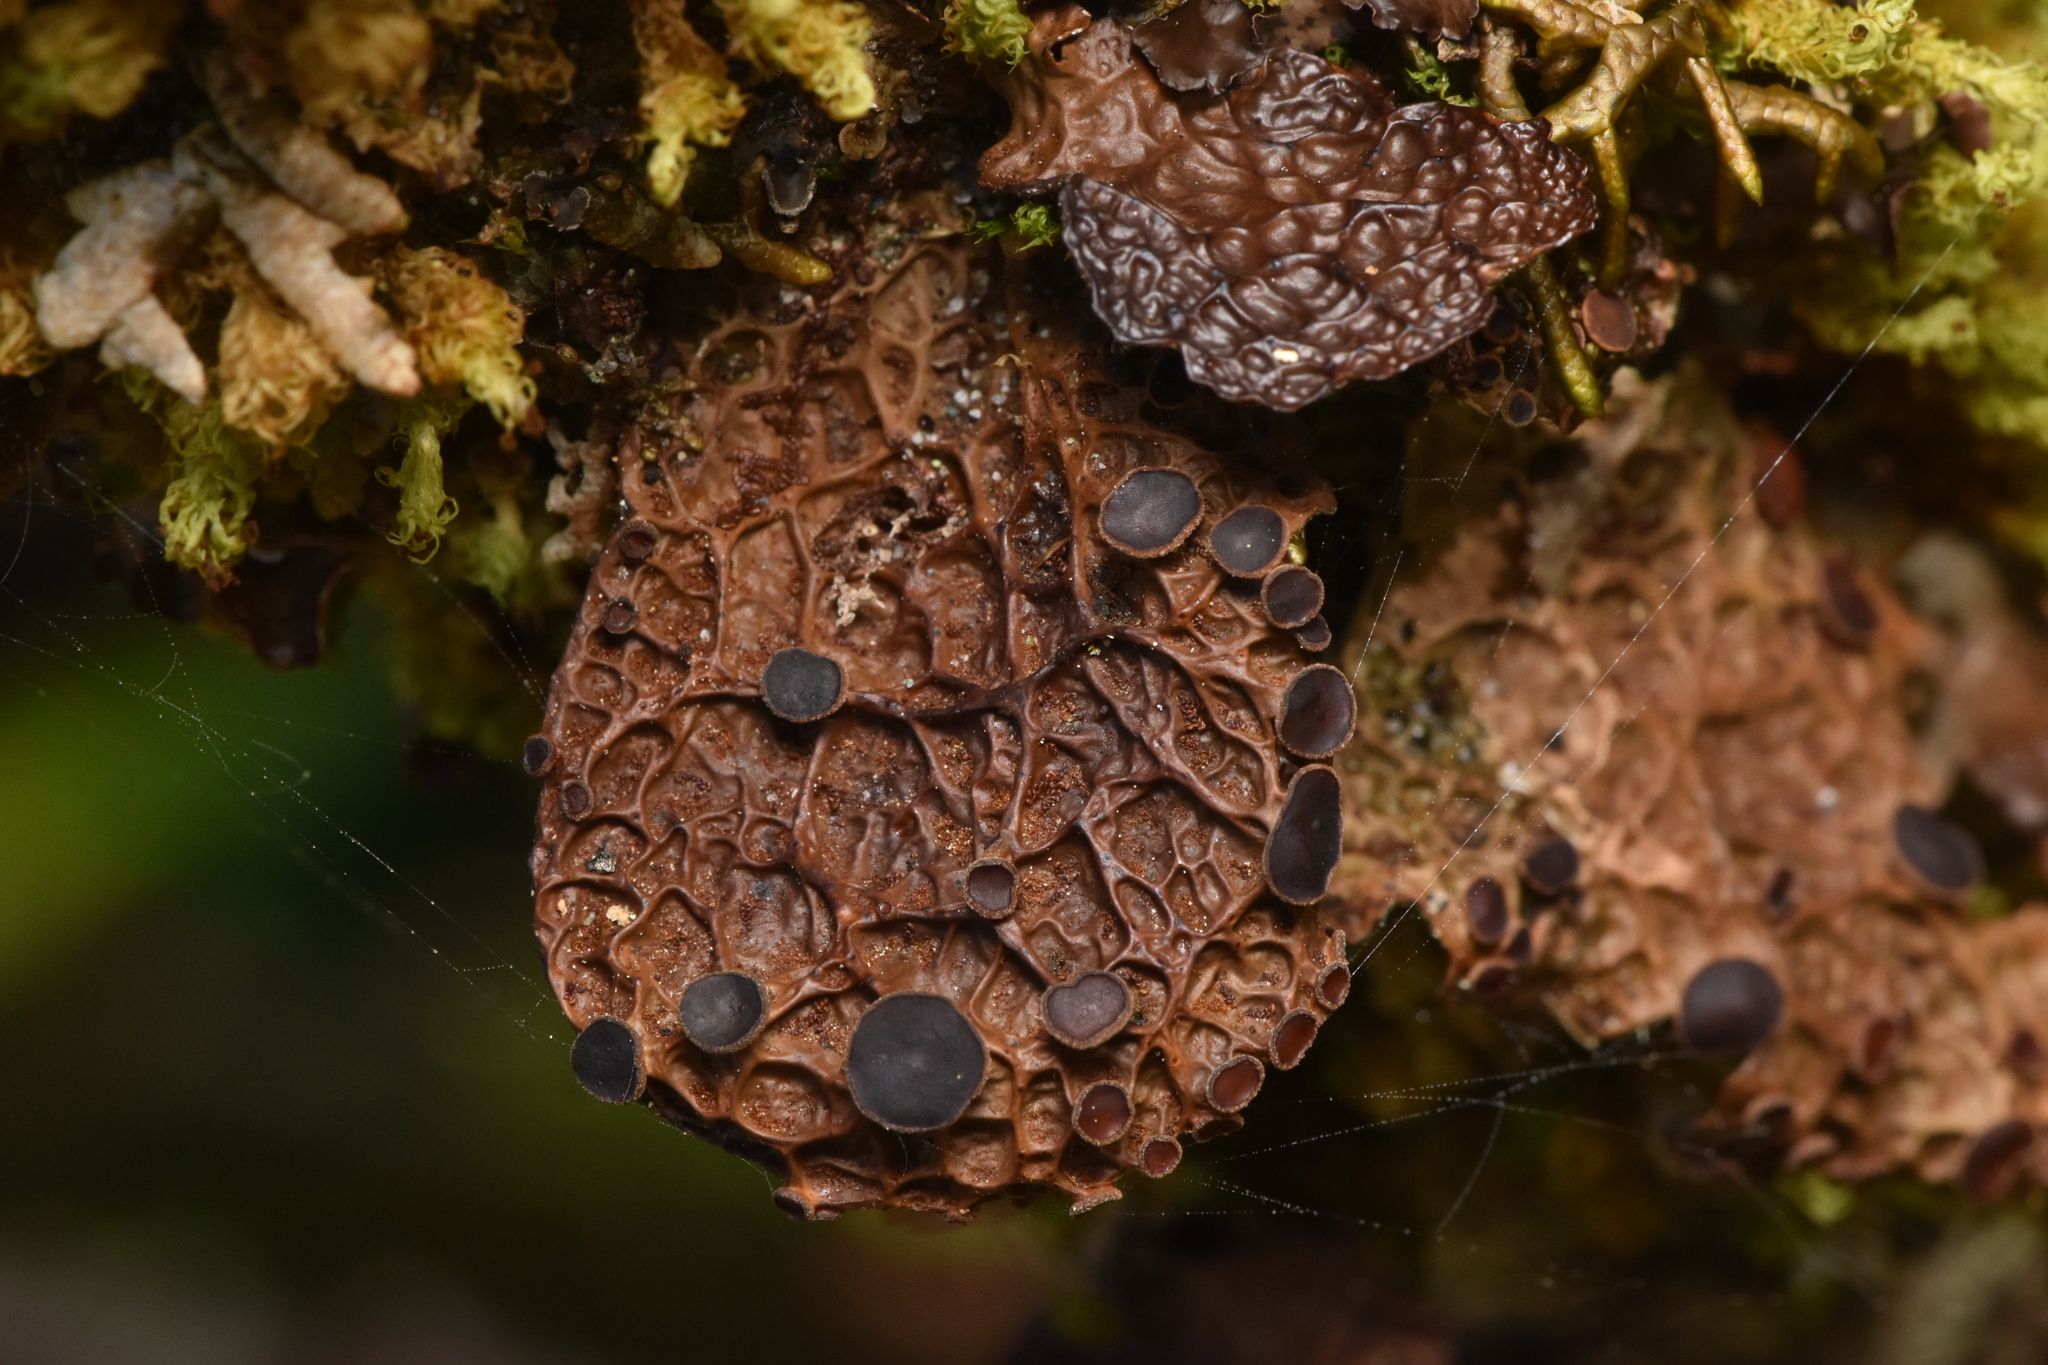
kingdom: Fungi
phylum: Ascomycota
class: Lecanoromycetes
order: Peltigerales
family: Lobariaceae
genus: Lobaria
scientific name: Lobaria anthraspis
